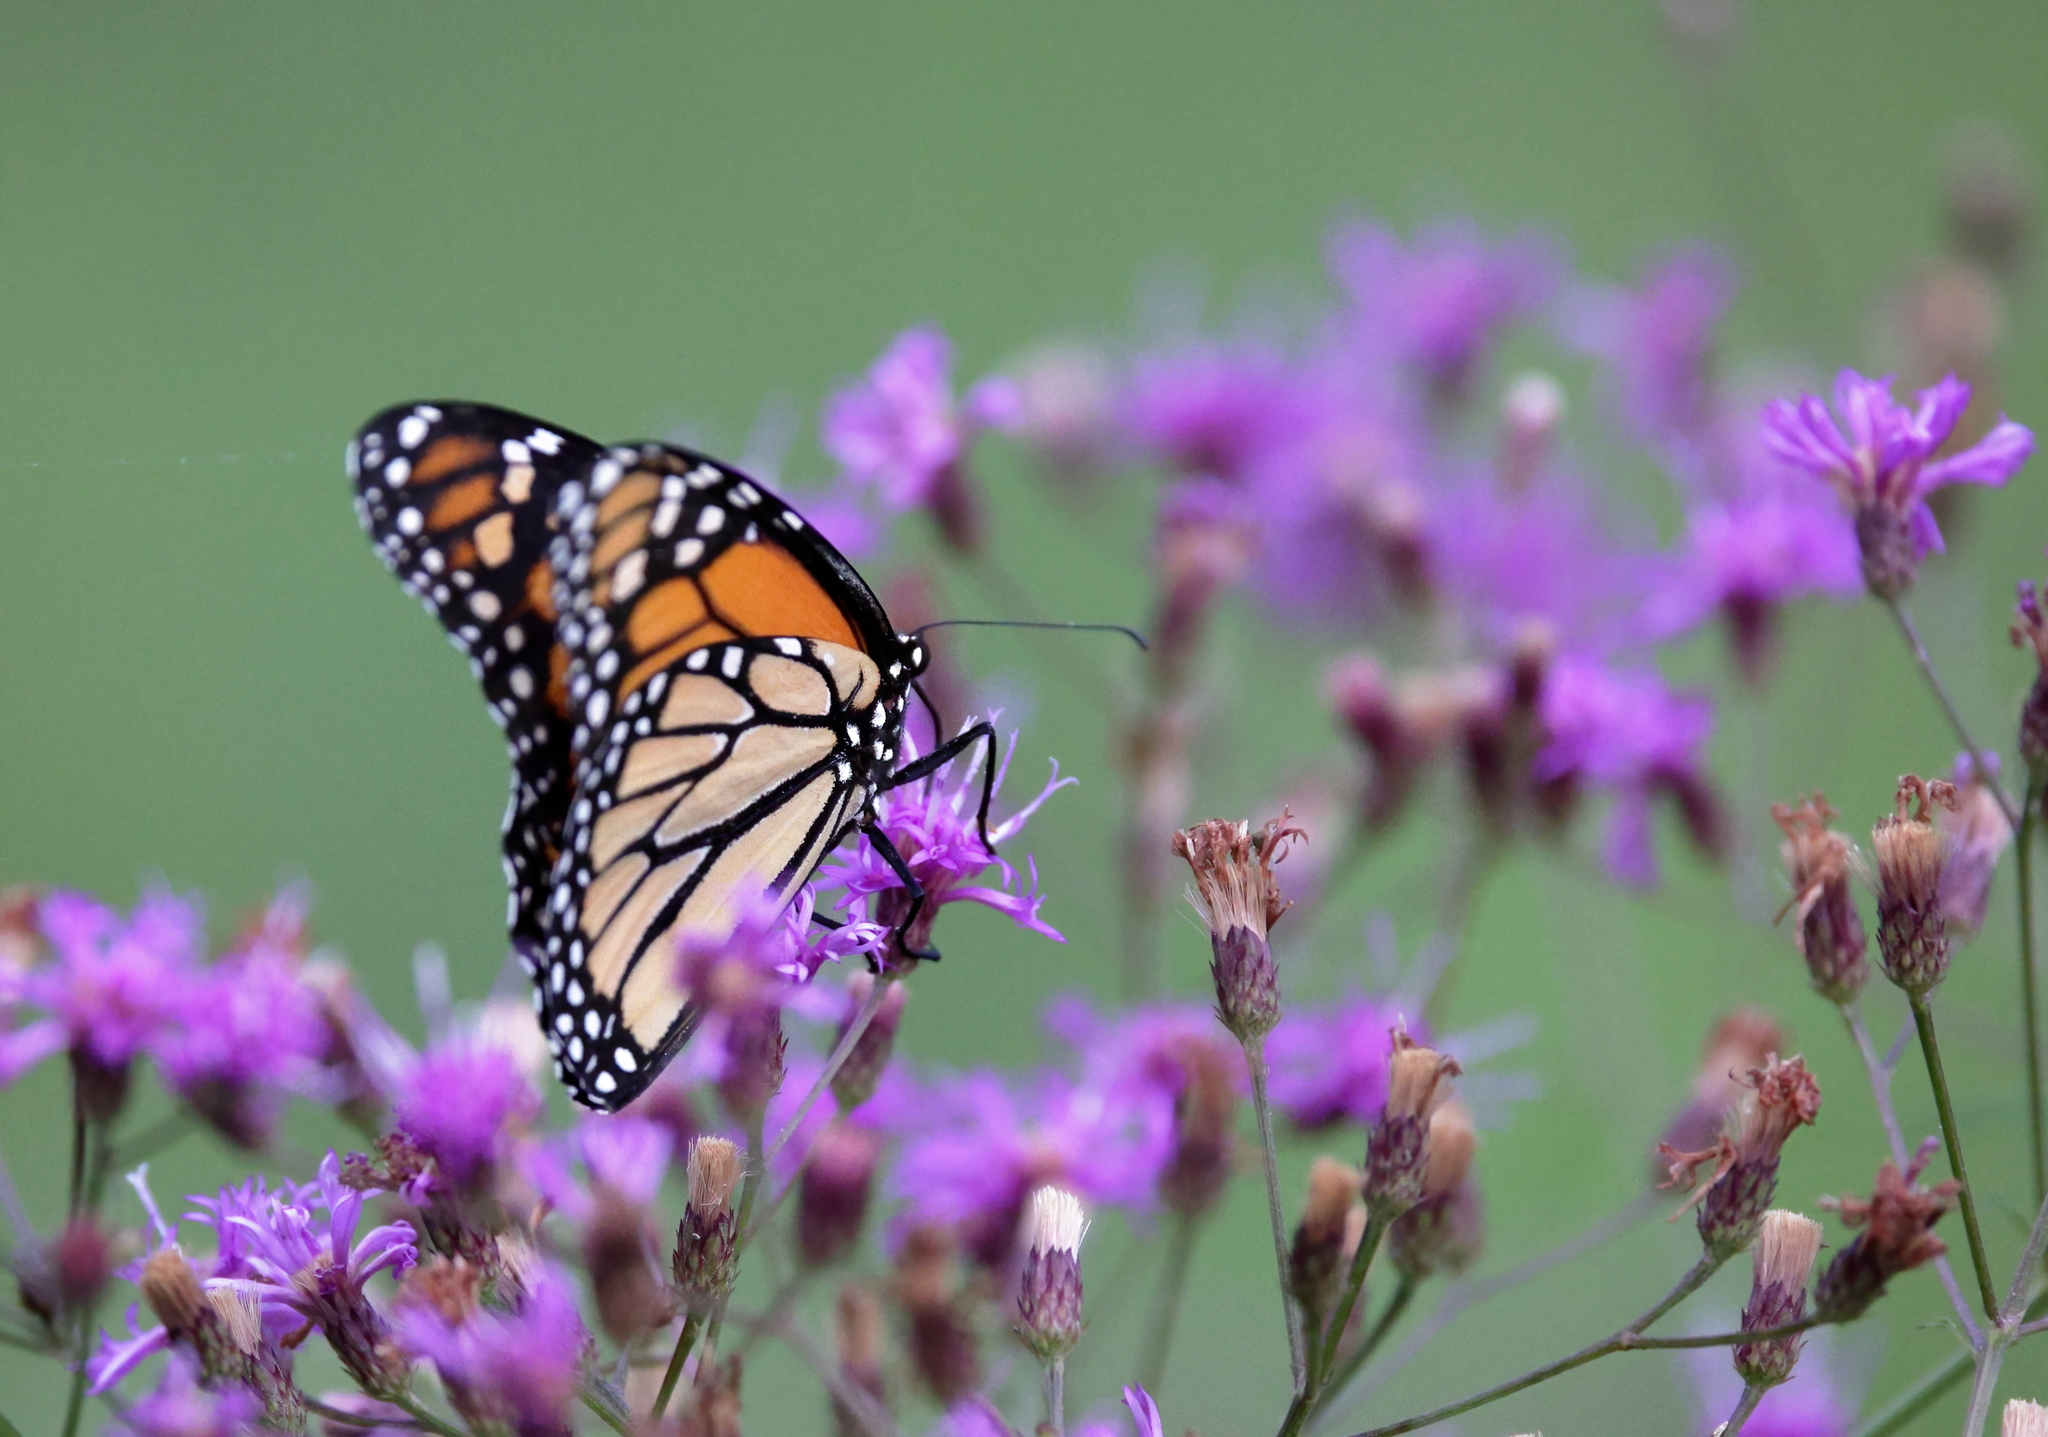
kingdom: Animalia
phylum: Arthropoda
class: Insecta
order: Lepidoptera
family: Nymphalidae
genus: Danaus
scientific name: Danaus plexippus
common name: Monarch
